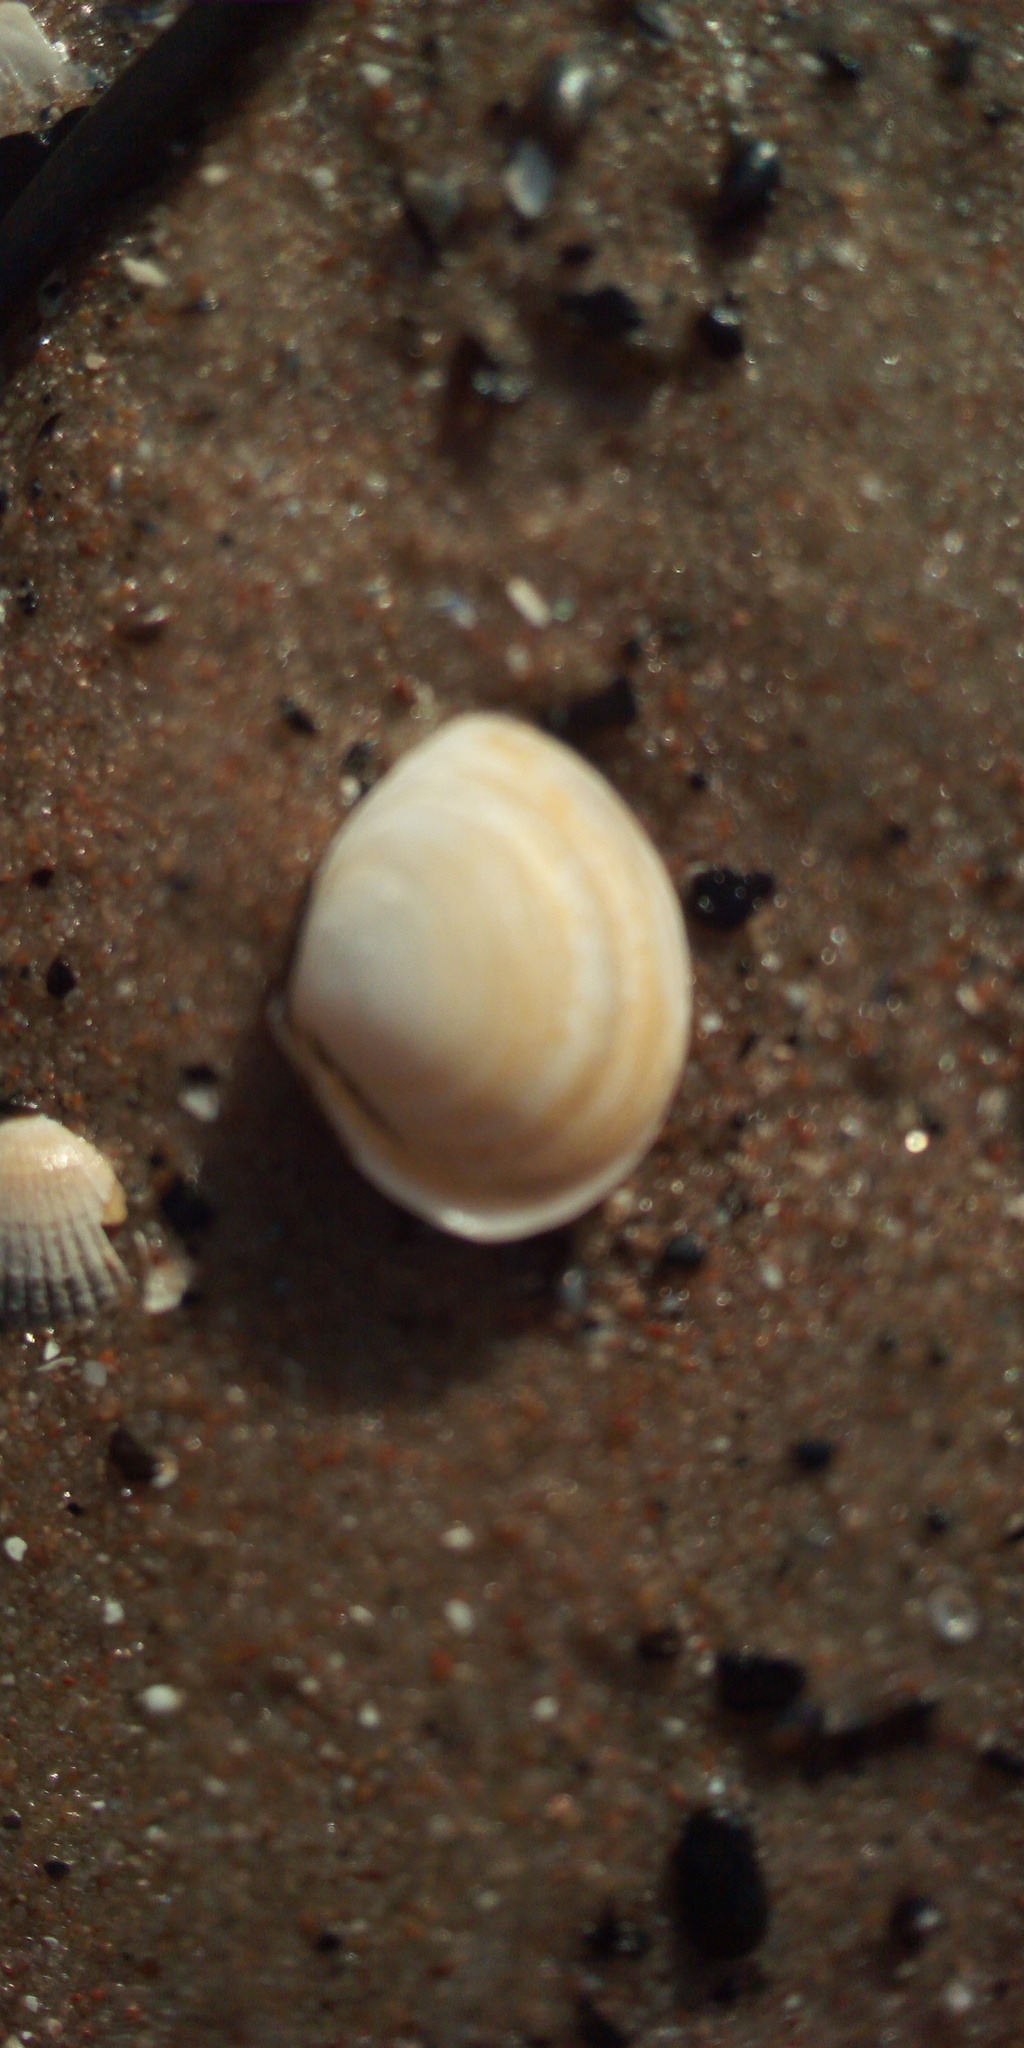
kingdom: Animalia
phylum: Mollusca
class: Bivalvia
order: Cardiida
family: Tellinidae
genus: Macoma
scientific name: Macoma balthica
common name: Baltic tellin
